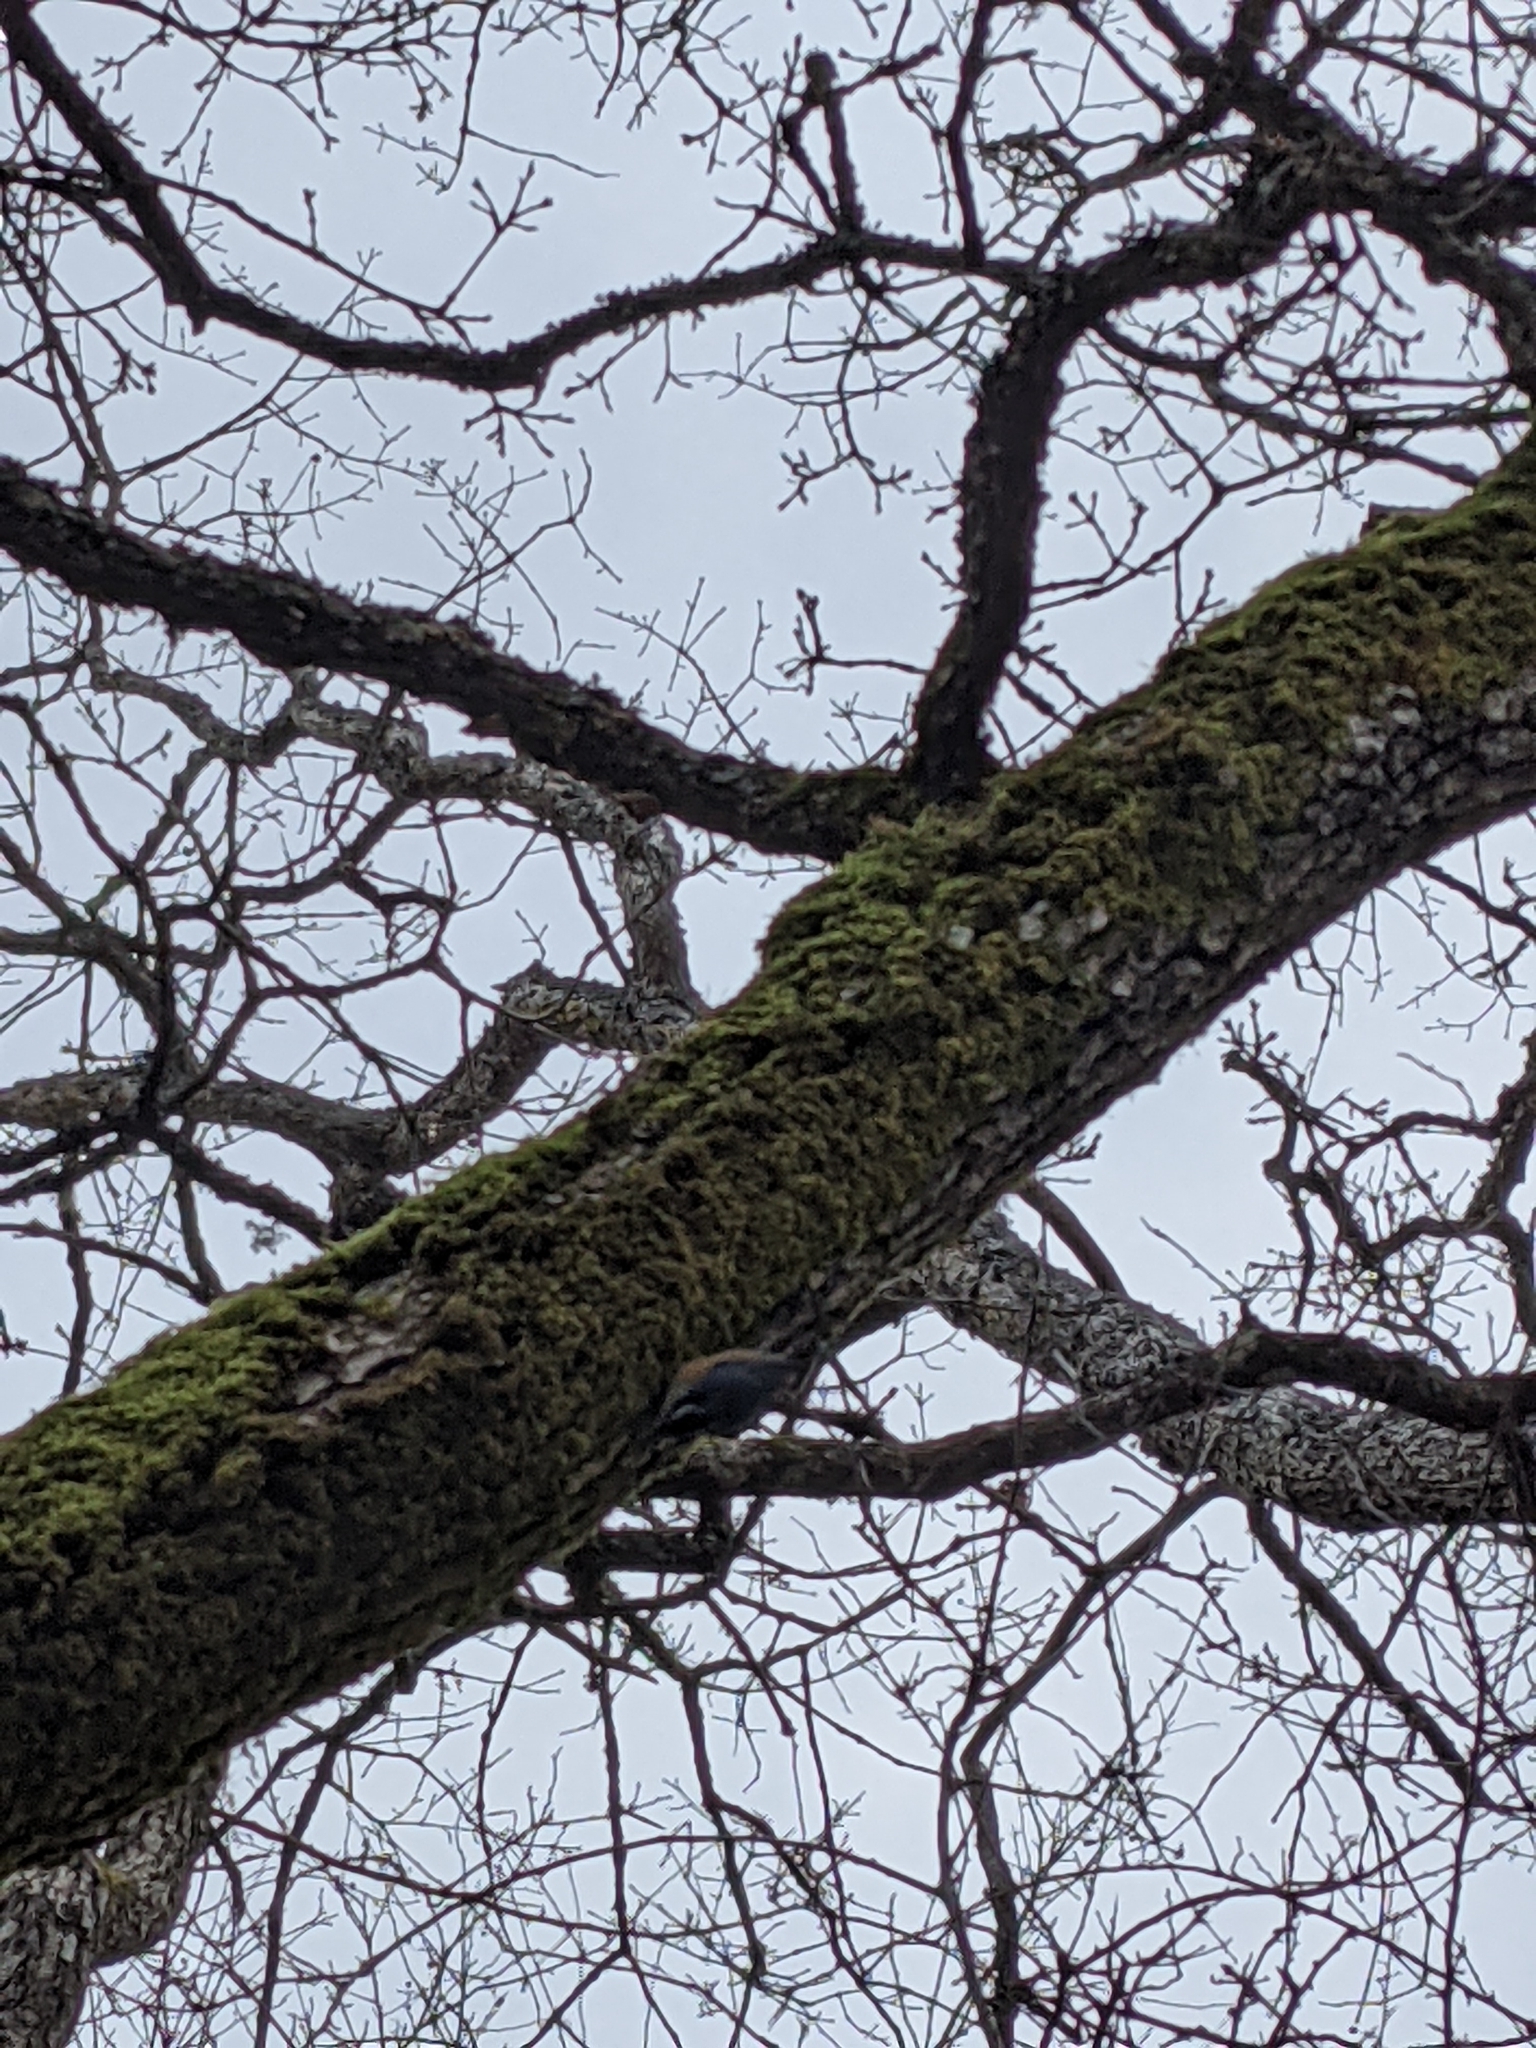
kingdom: Animalia
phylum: Chordata
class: Aves
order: Passeriformes
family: Sittidae
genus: Sitta
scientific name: Sitta canadensis
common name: Red-breasted nuthatch
